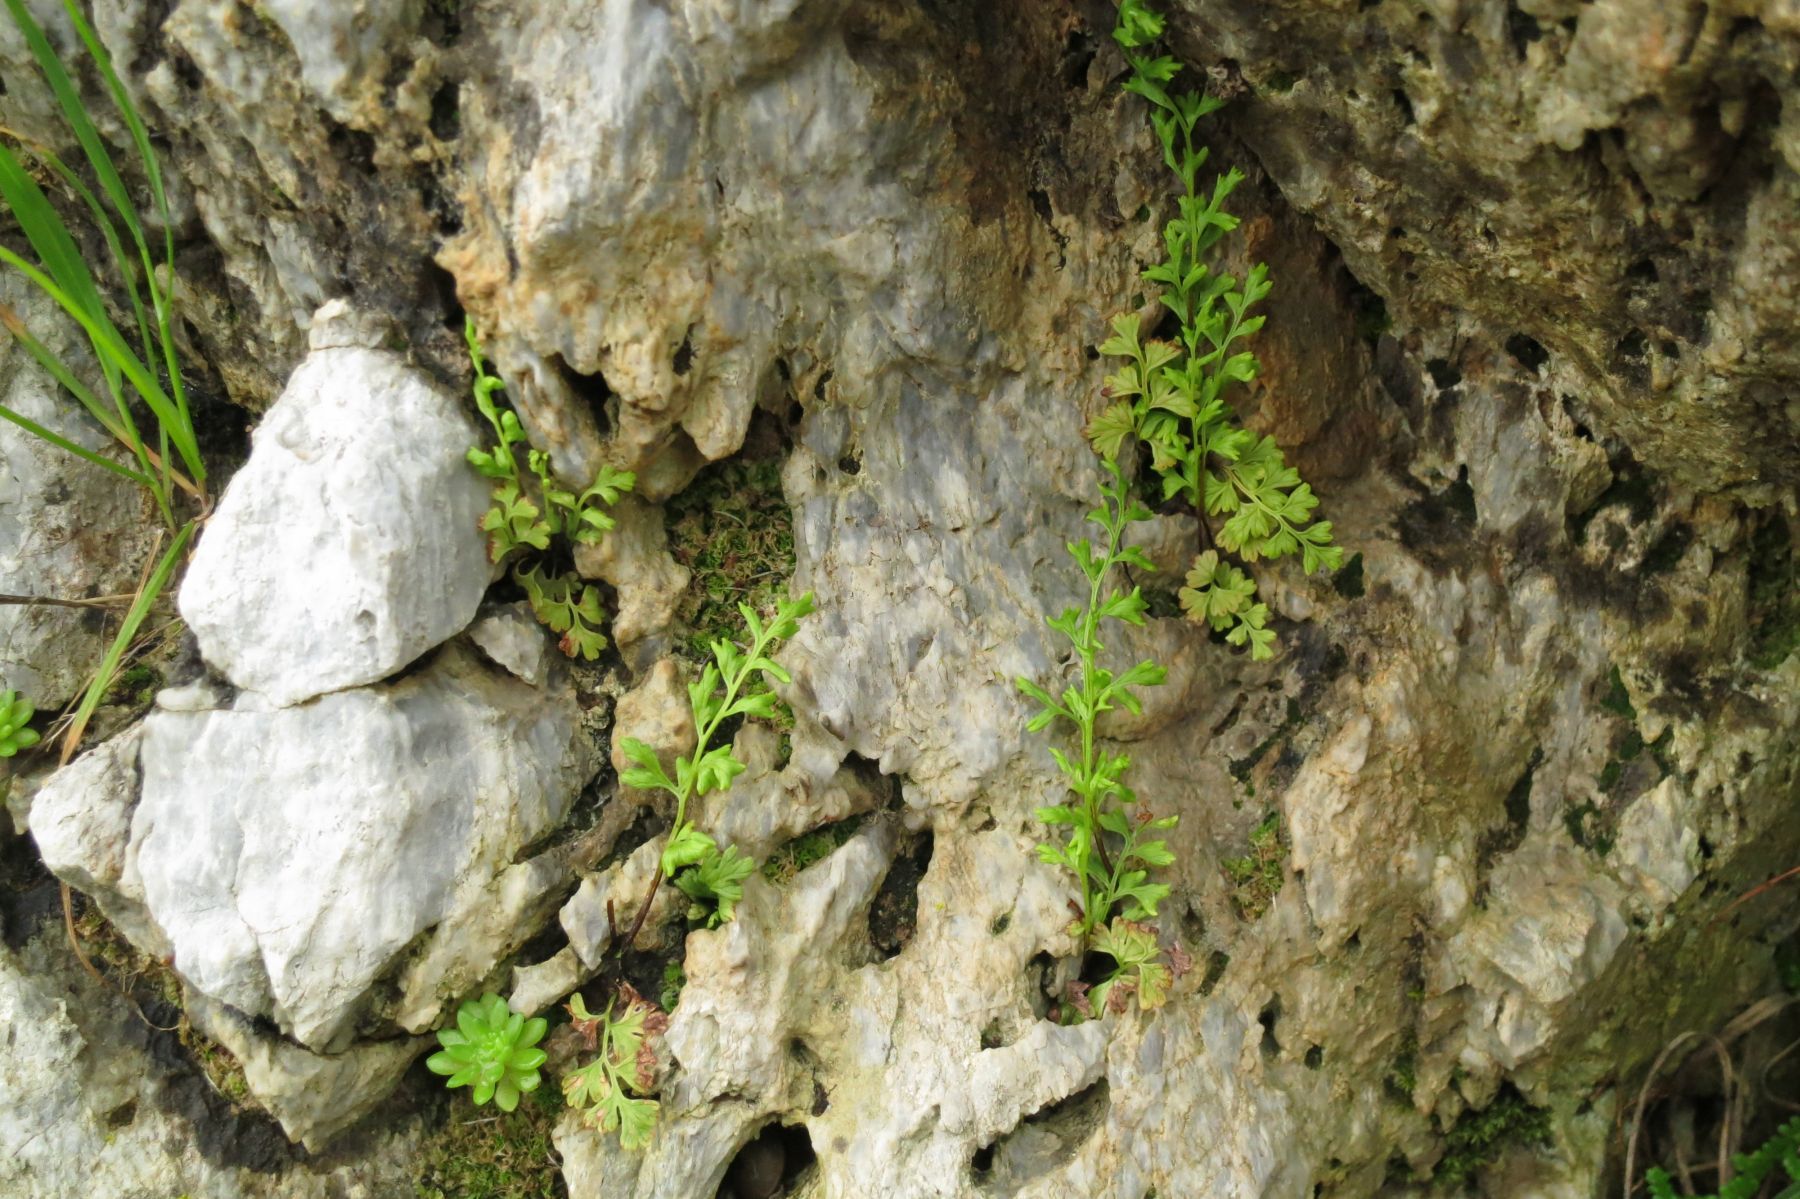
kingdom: Plantae
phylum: Tracheophyta
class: Polypodiopsida
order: Polypodiales
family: Pteridaceae
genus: Anogramma
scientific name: Anogramma leptophylla
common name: Jersey fern
